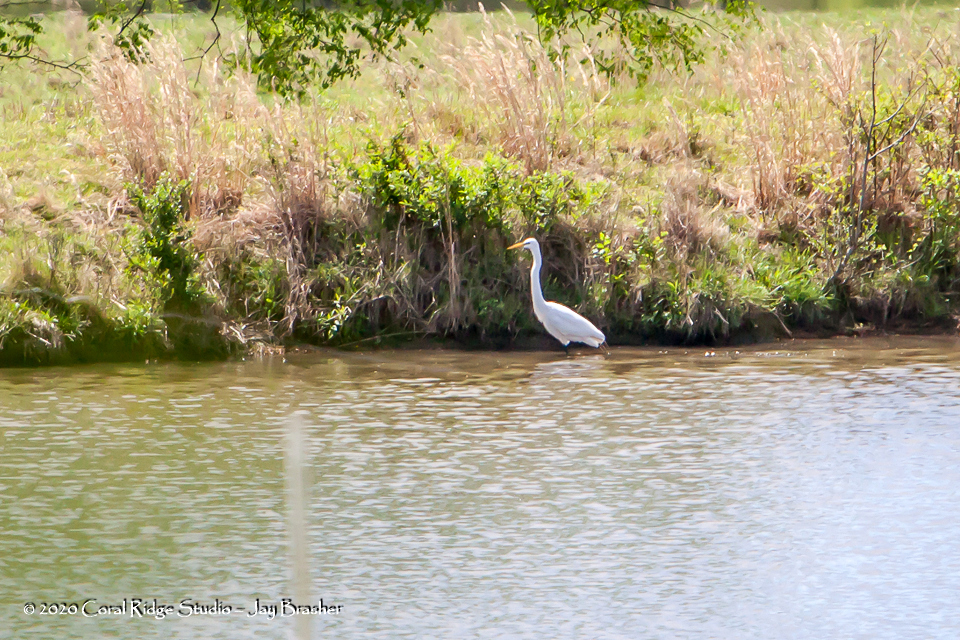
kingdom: Animalia
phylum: Chordata
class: Aves
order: Pelecaniformes
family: Ardeidae
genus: Ardea
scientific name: Ardea alba
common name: Great egret
